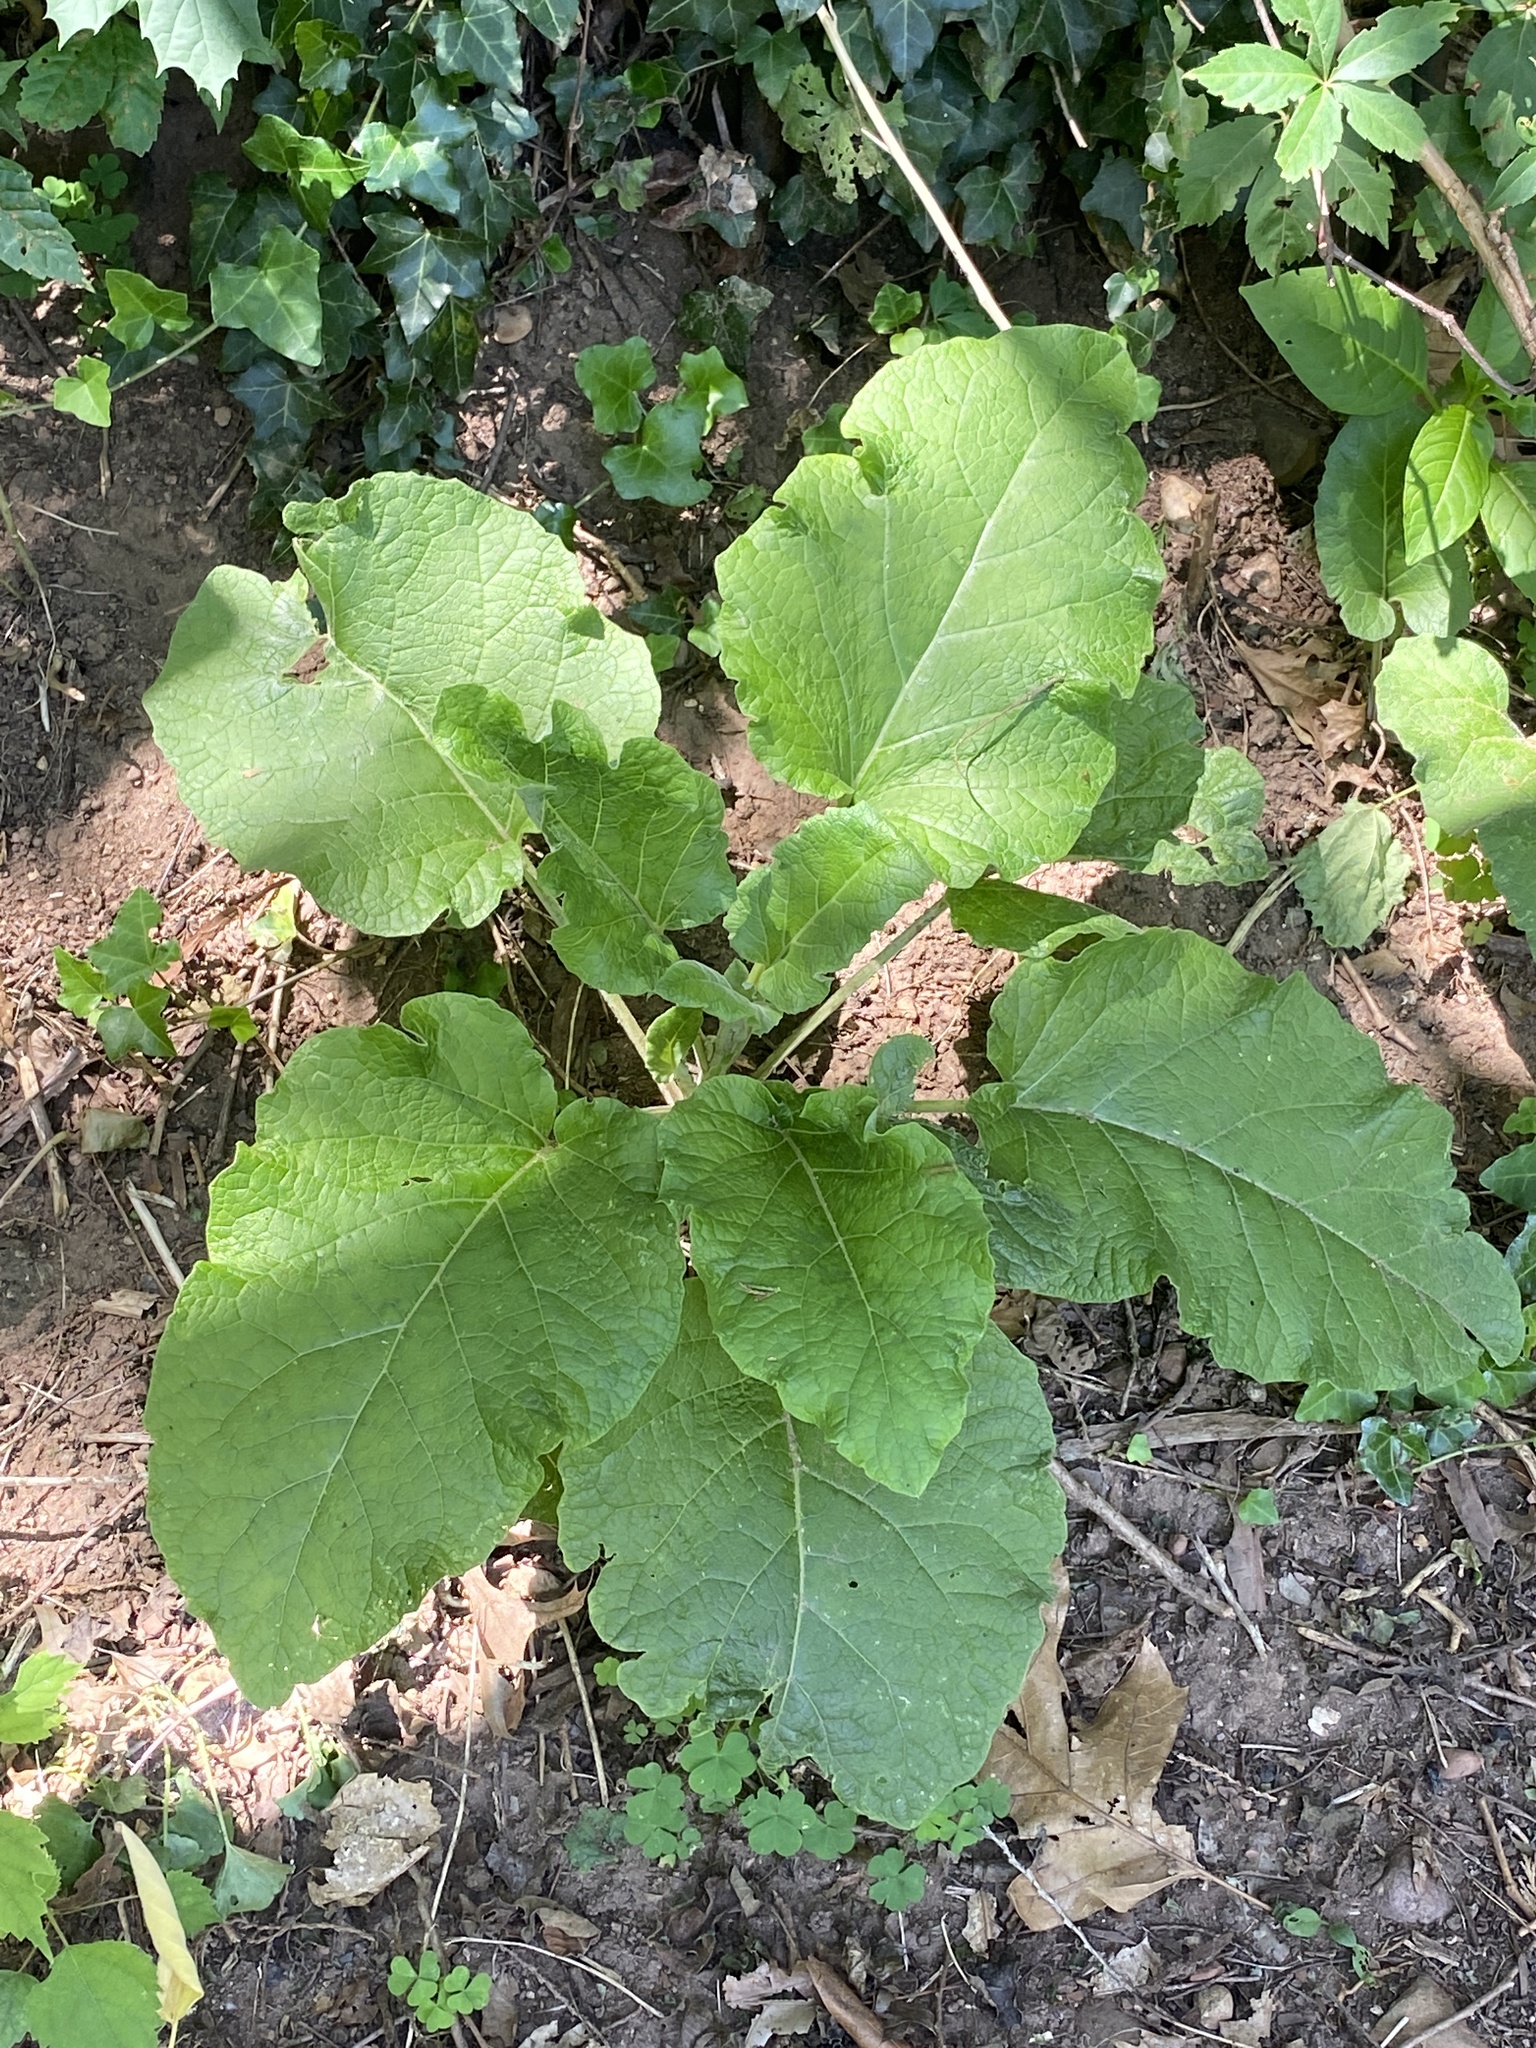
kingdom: Plantae
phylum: Tracheophyta
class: Magnoliopsida
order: Asterales
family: Asteraceae
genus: Arctium
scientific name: Arctium minus
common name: Lesser burdock
